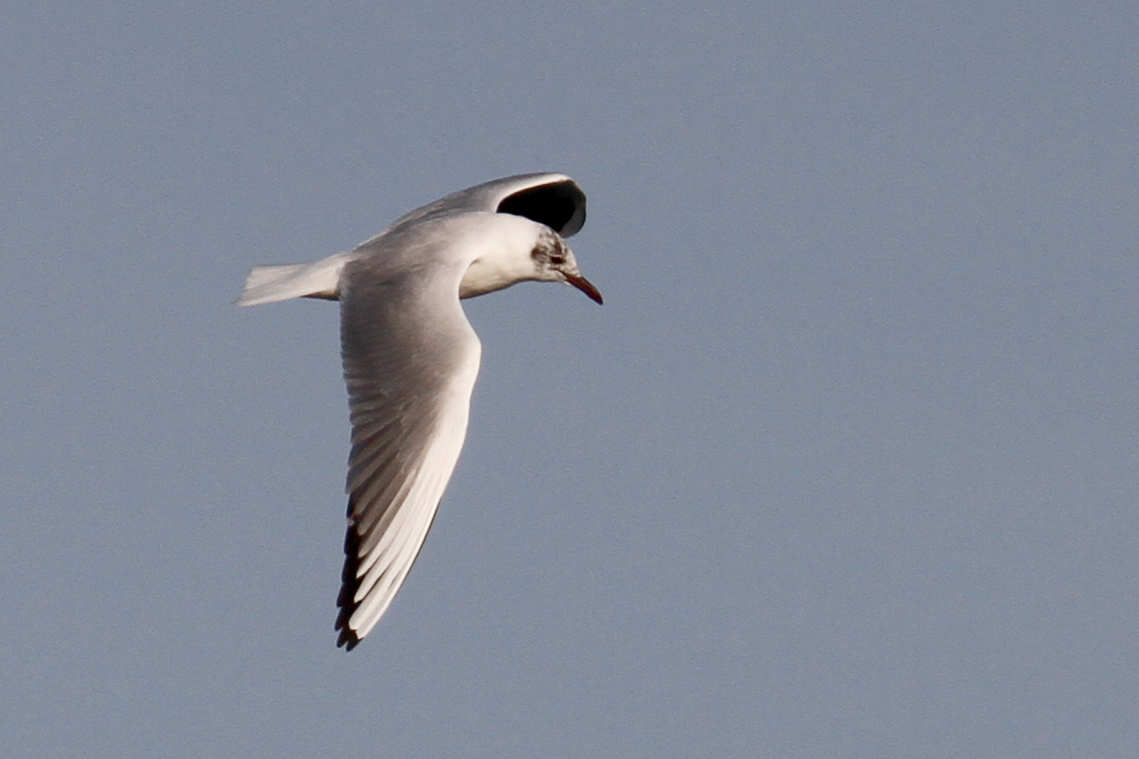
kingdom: Animalia
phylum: Chordata
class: Aves
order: Charadriiformes
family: Laridae
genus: Chroicocephalus
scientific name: Chroicocephalus ridibundus
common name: Black-headed gull
